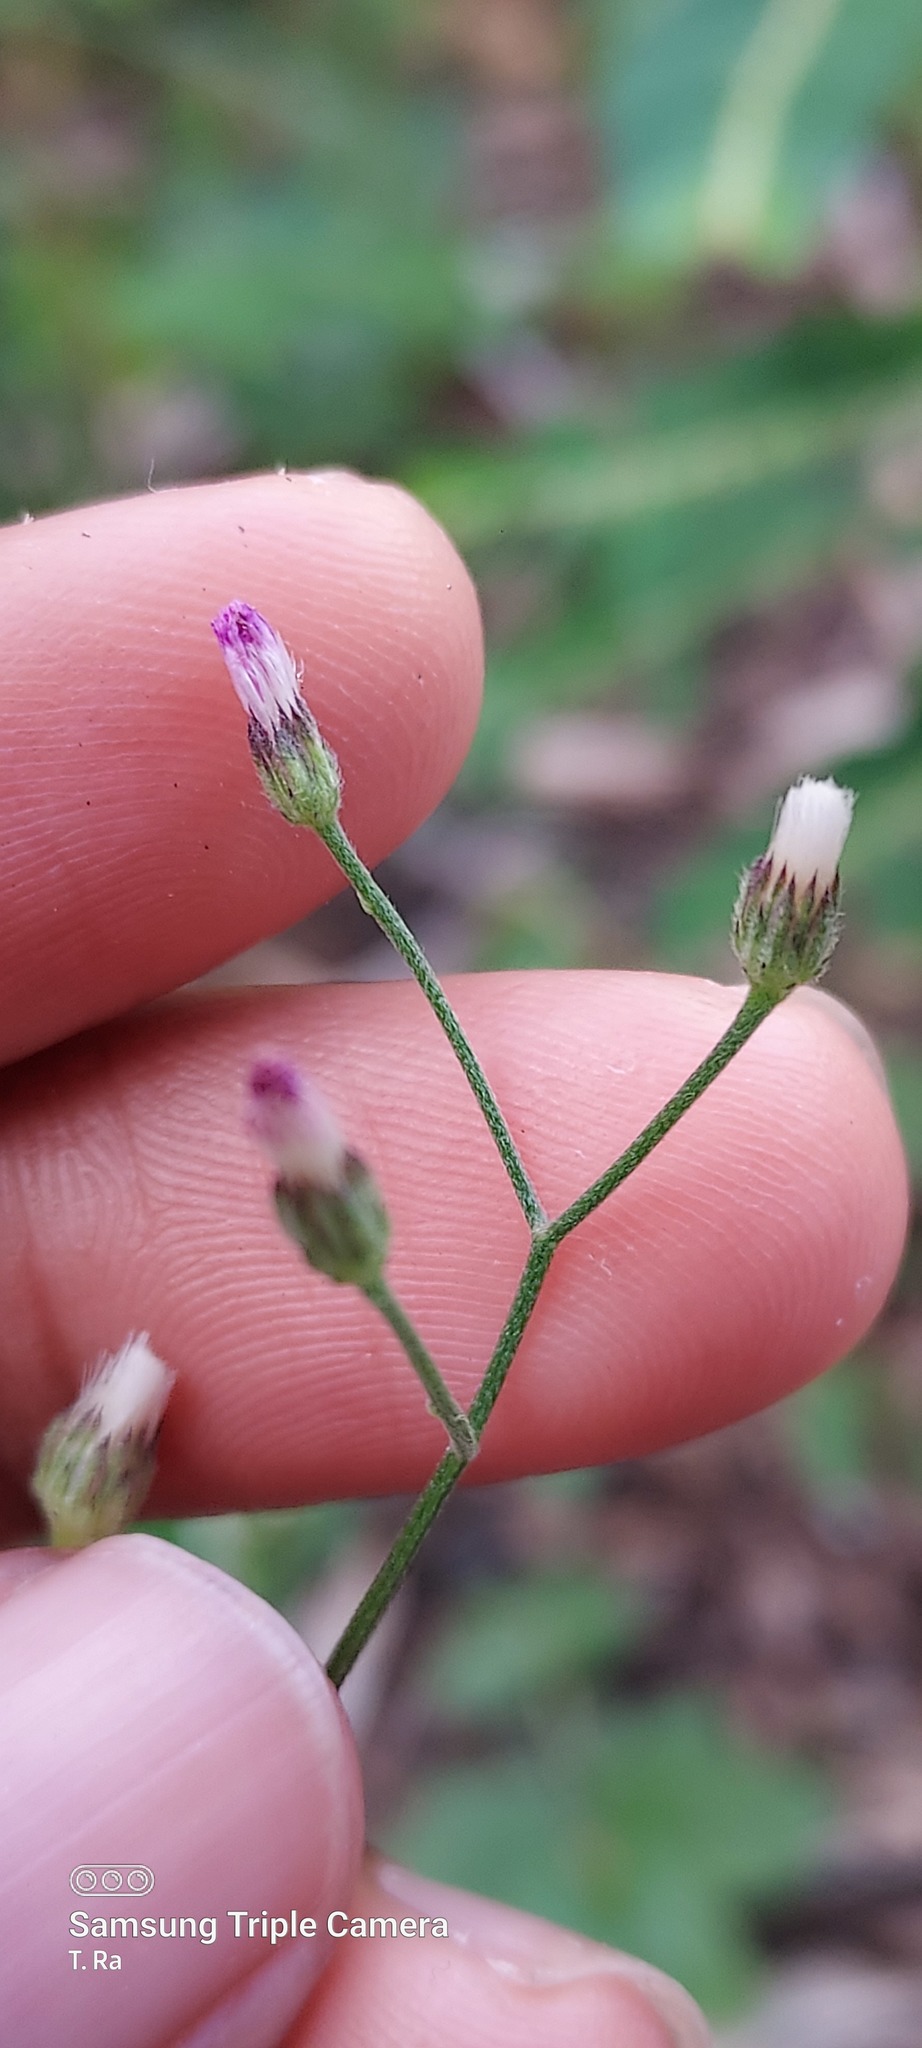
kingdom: Plantae
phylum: Tracheophyta
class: Magnoliopsida
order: Asterales
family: Asteraceae
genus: Cyanthillium
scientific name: Cyanthillium cinereum
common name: Little ironweed
